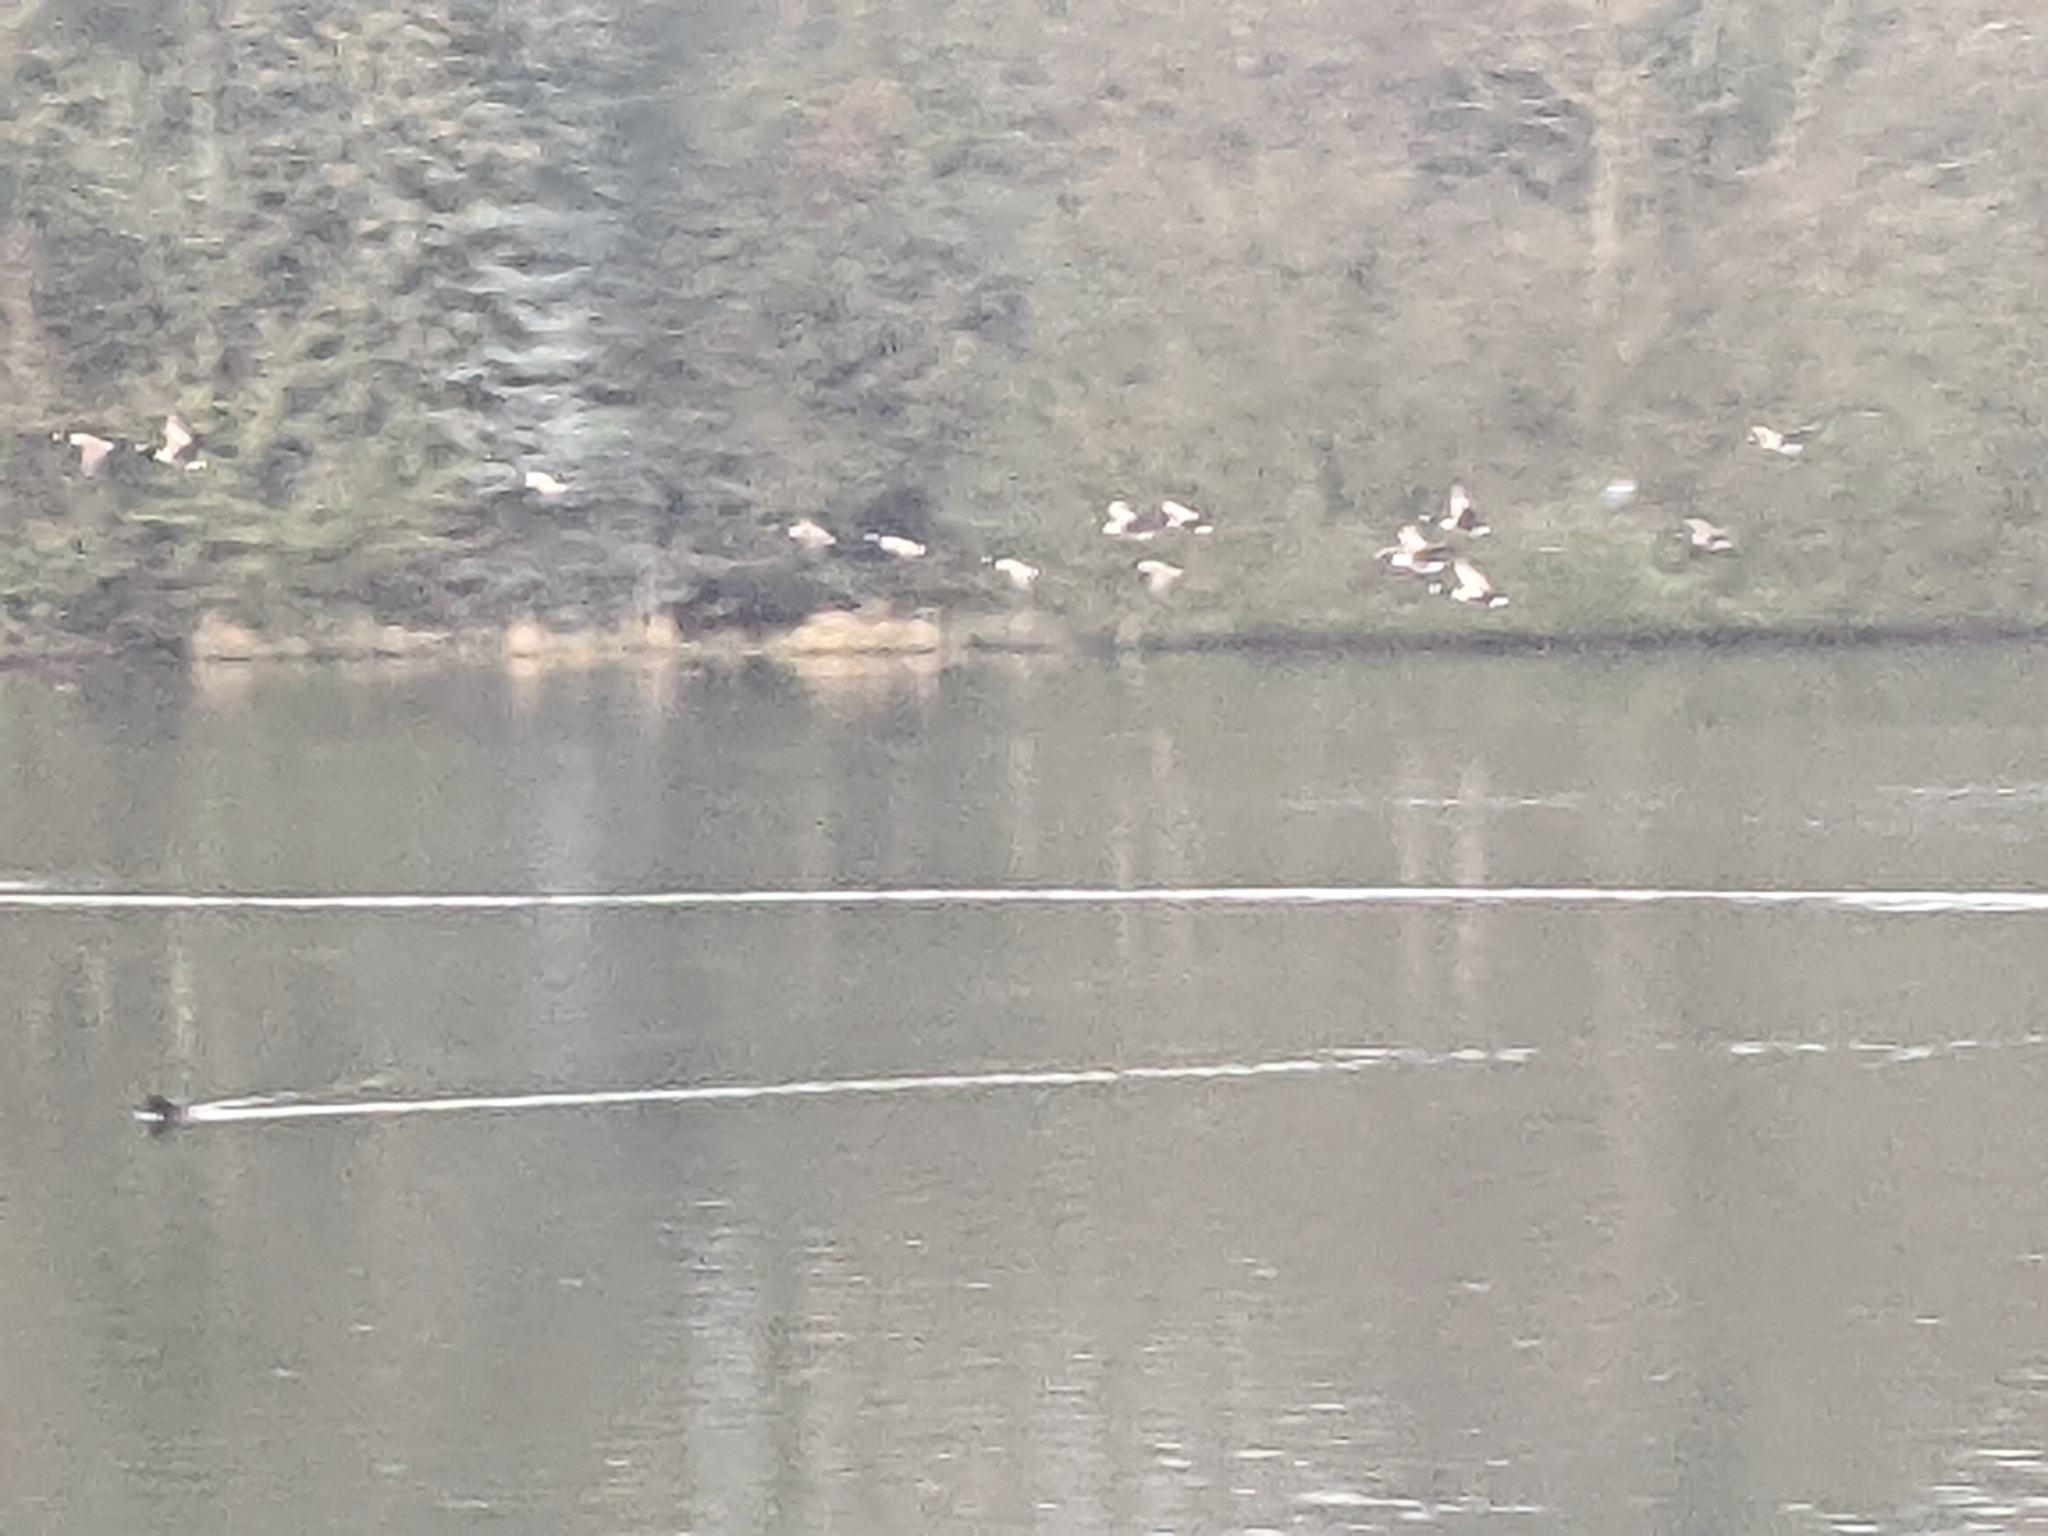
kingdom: Animalia
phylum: Chordata
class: Aves
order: Anseriformes
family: Anatidae
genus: Branta
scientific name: Branta canadensis
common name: Canada goose
